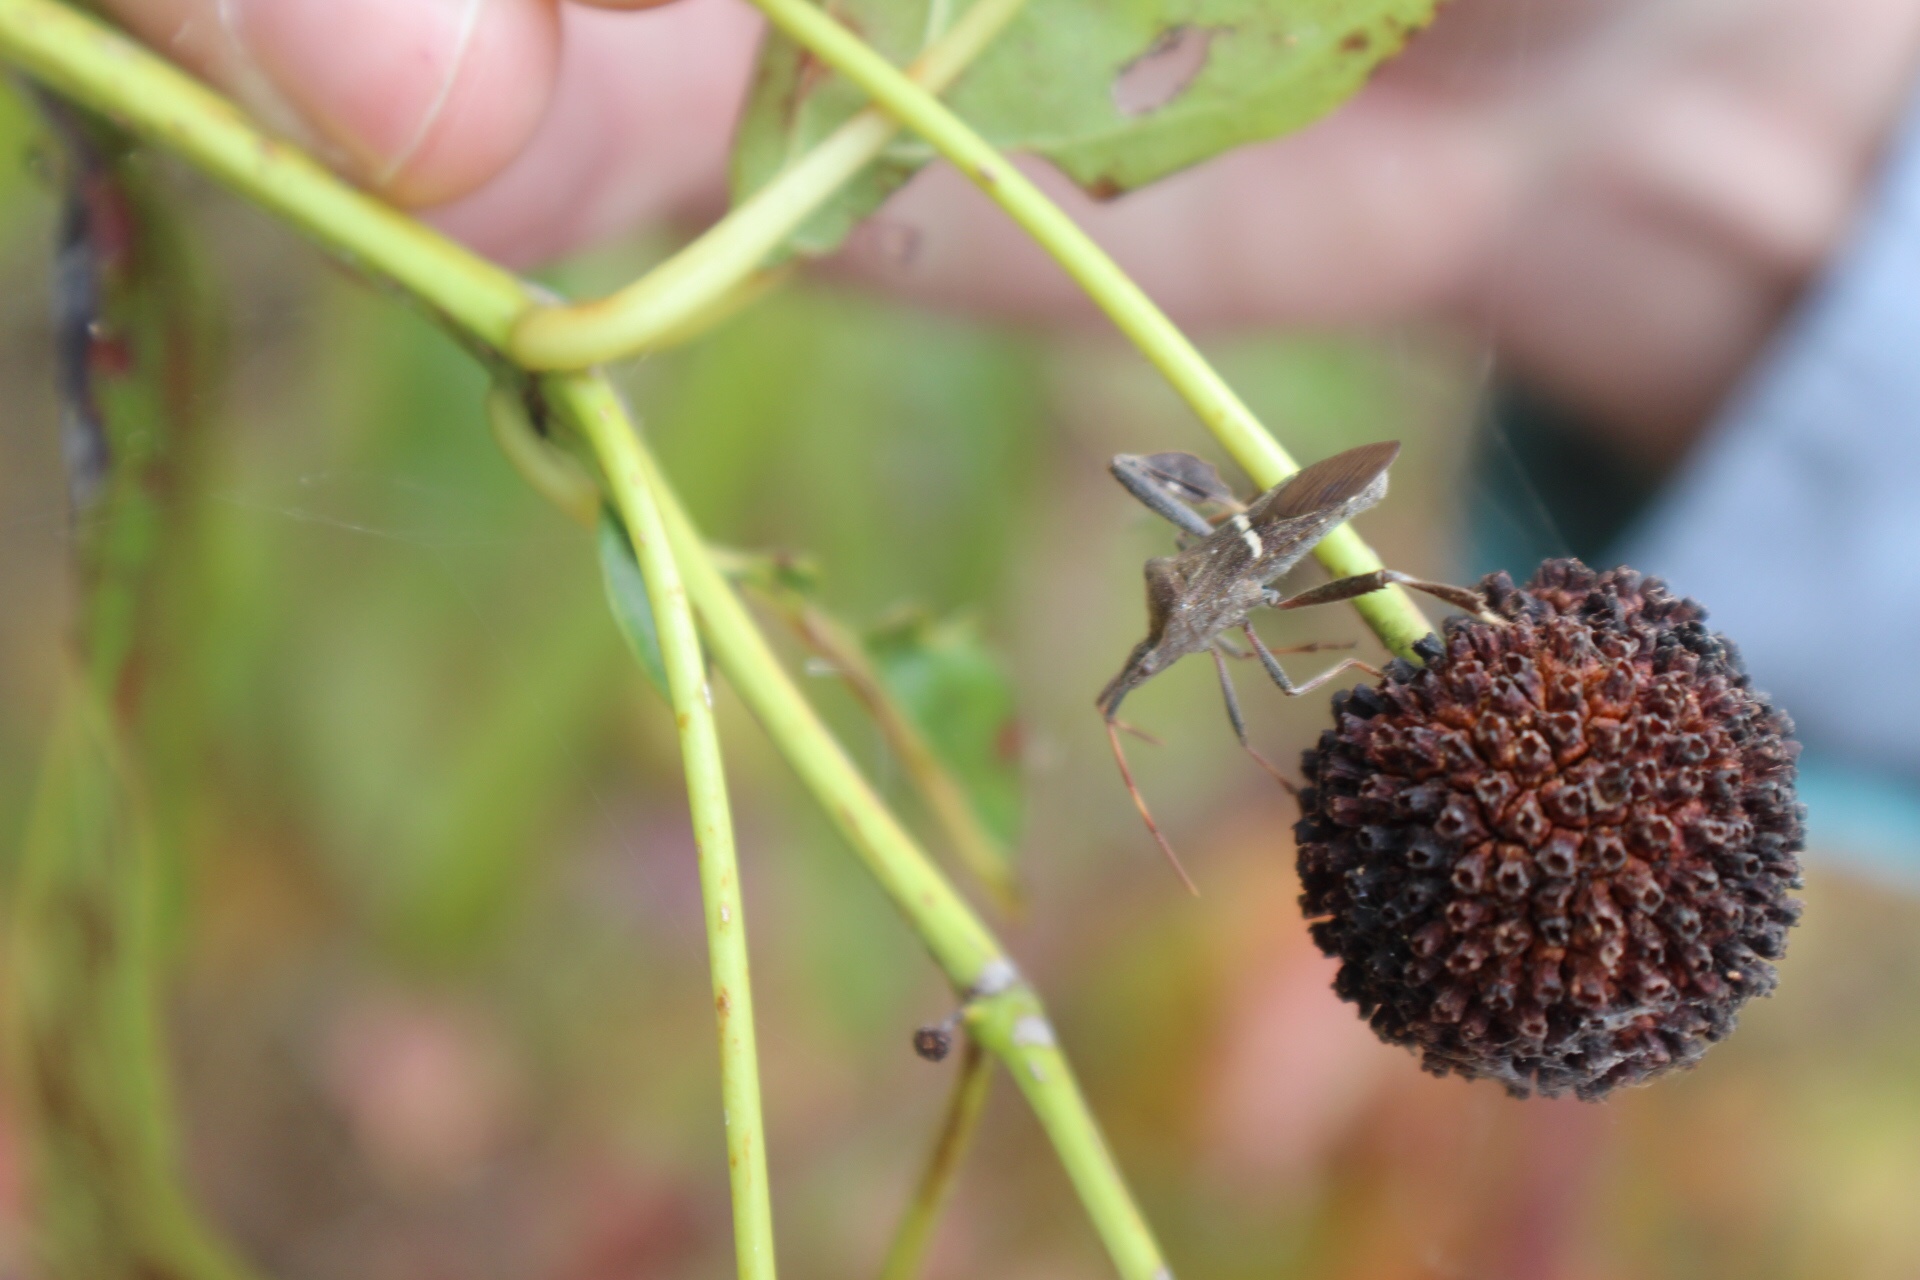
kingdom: Animalia
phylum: Arthropoda
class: Insecta
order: Hemiptera
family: Coreidae
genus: Leptoglossus
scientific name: Leptoglossus phyllopus
